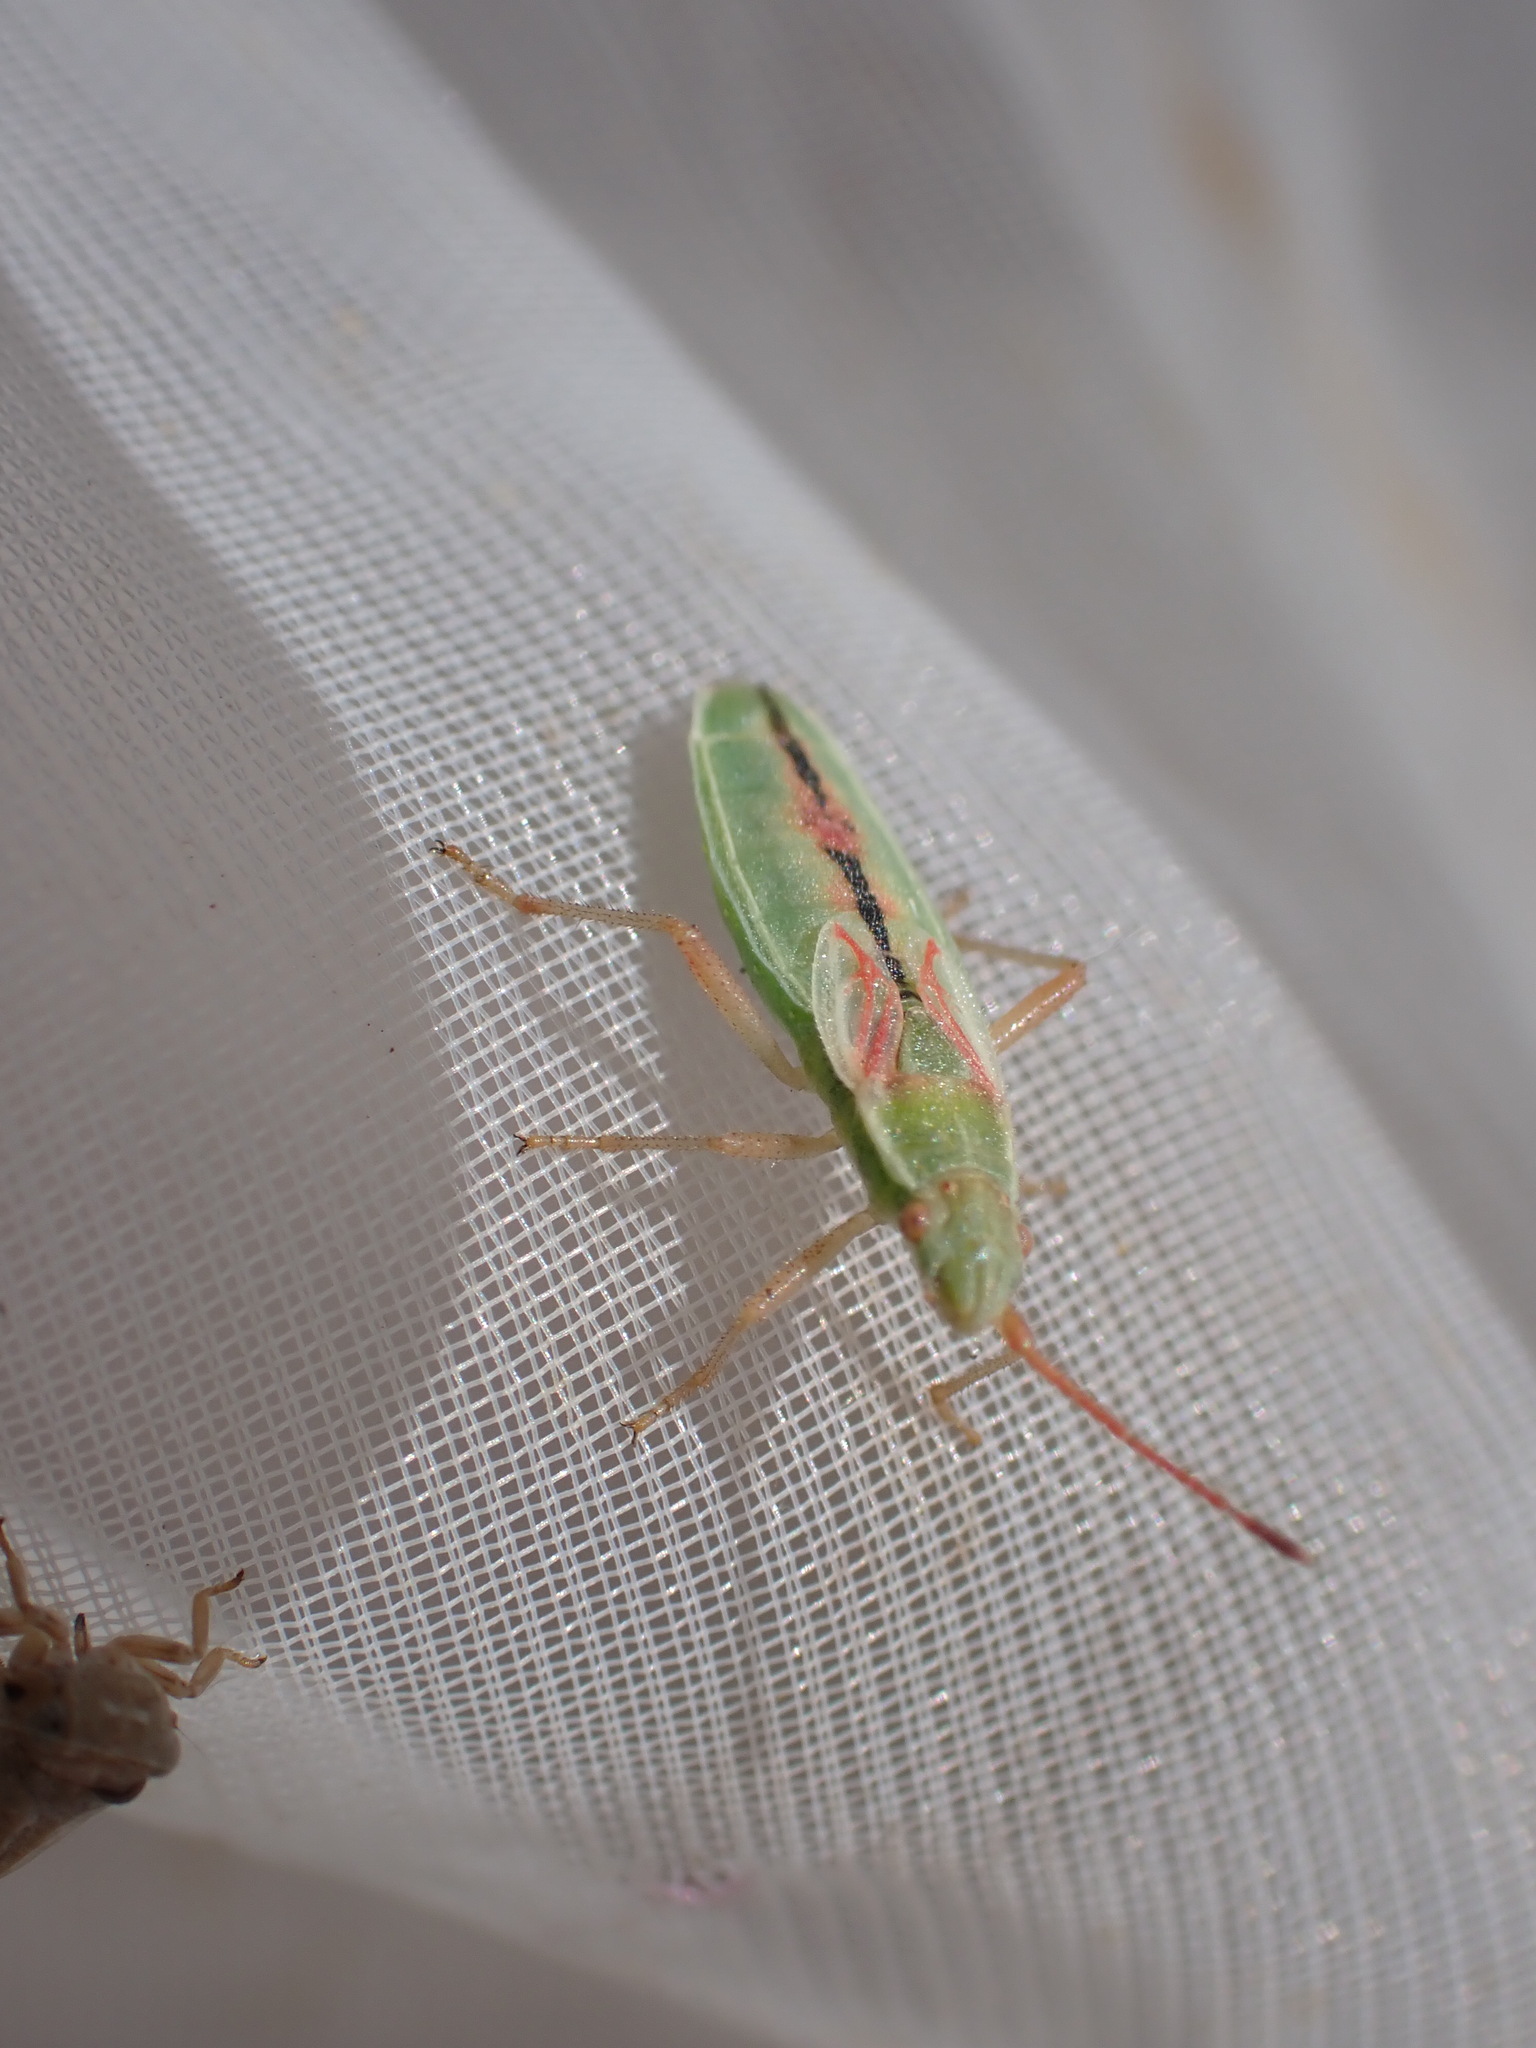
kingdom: Animalia
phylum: Arthropoda
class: Insecta
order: Hemiptera
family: Rhopalidae
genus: Myrmus
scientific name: Myrmus miriformis
